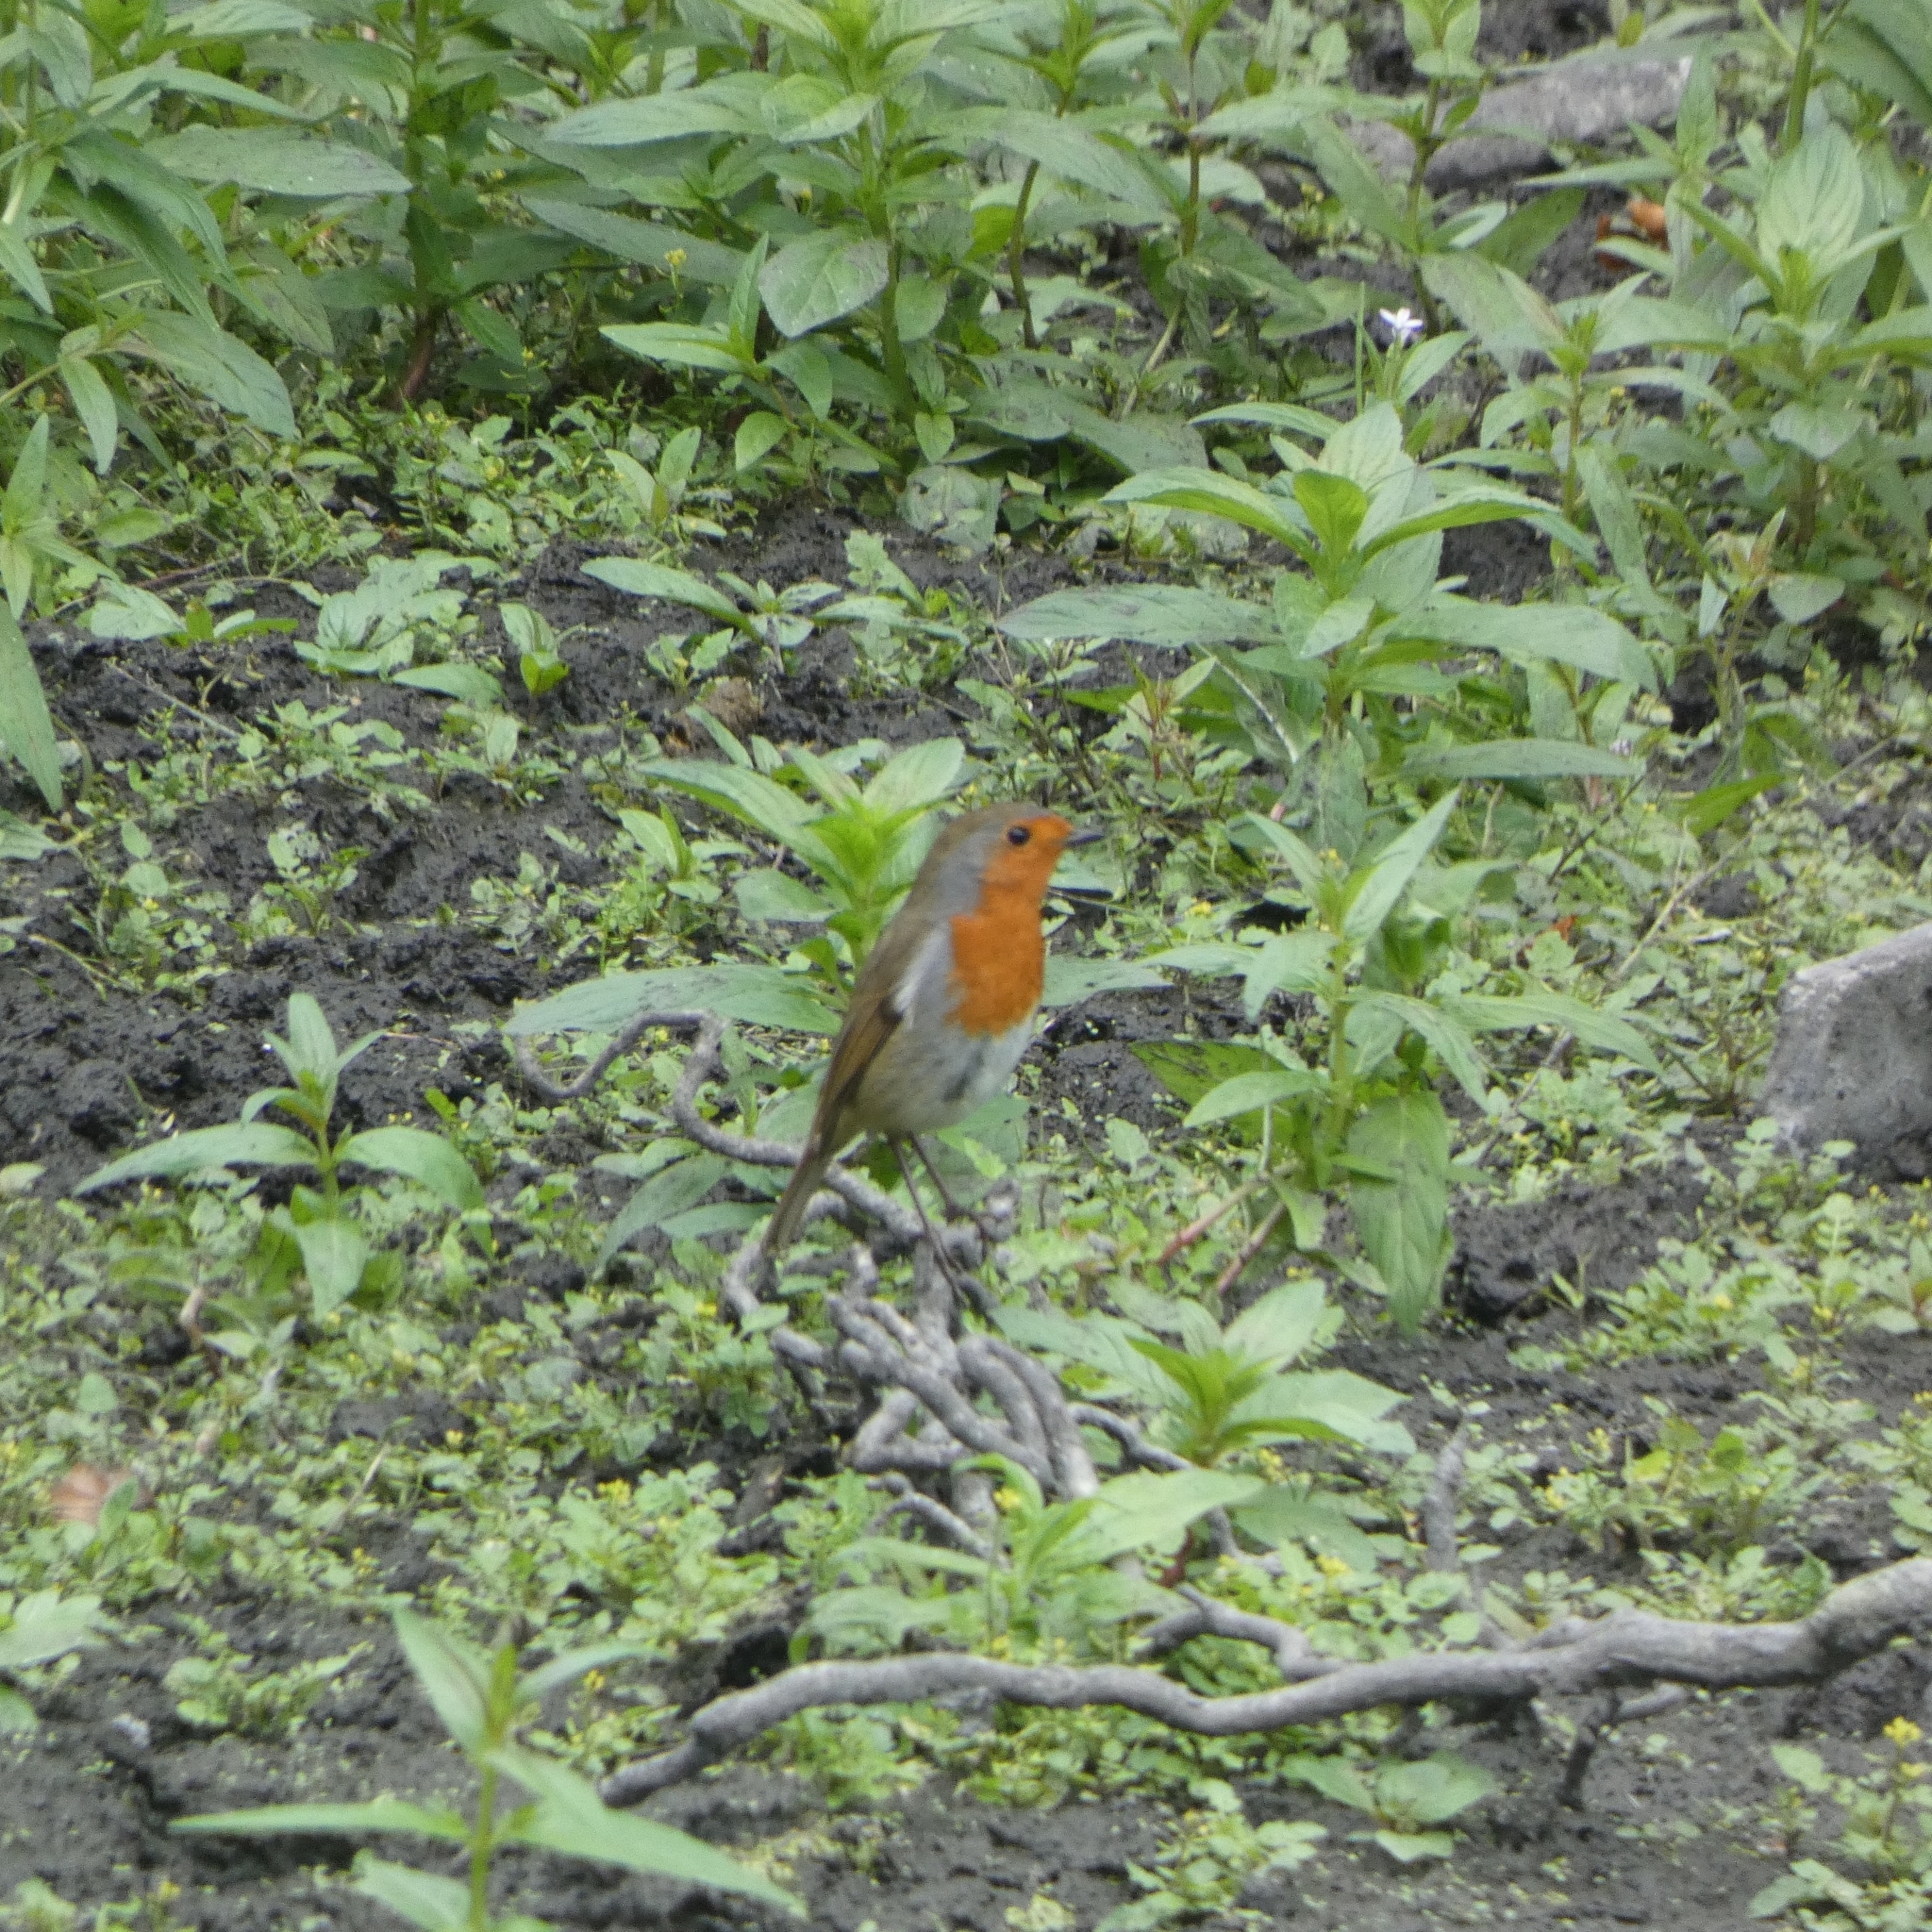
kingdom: Animalia
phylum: Chordata
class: Aves
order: Passeriformes
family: Muscicapidae
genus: Erithacus
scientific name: Erithacus rubecula
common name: European robin
